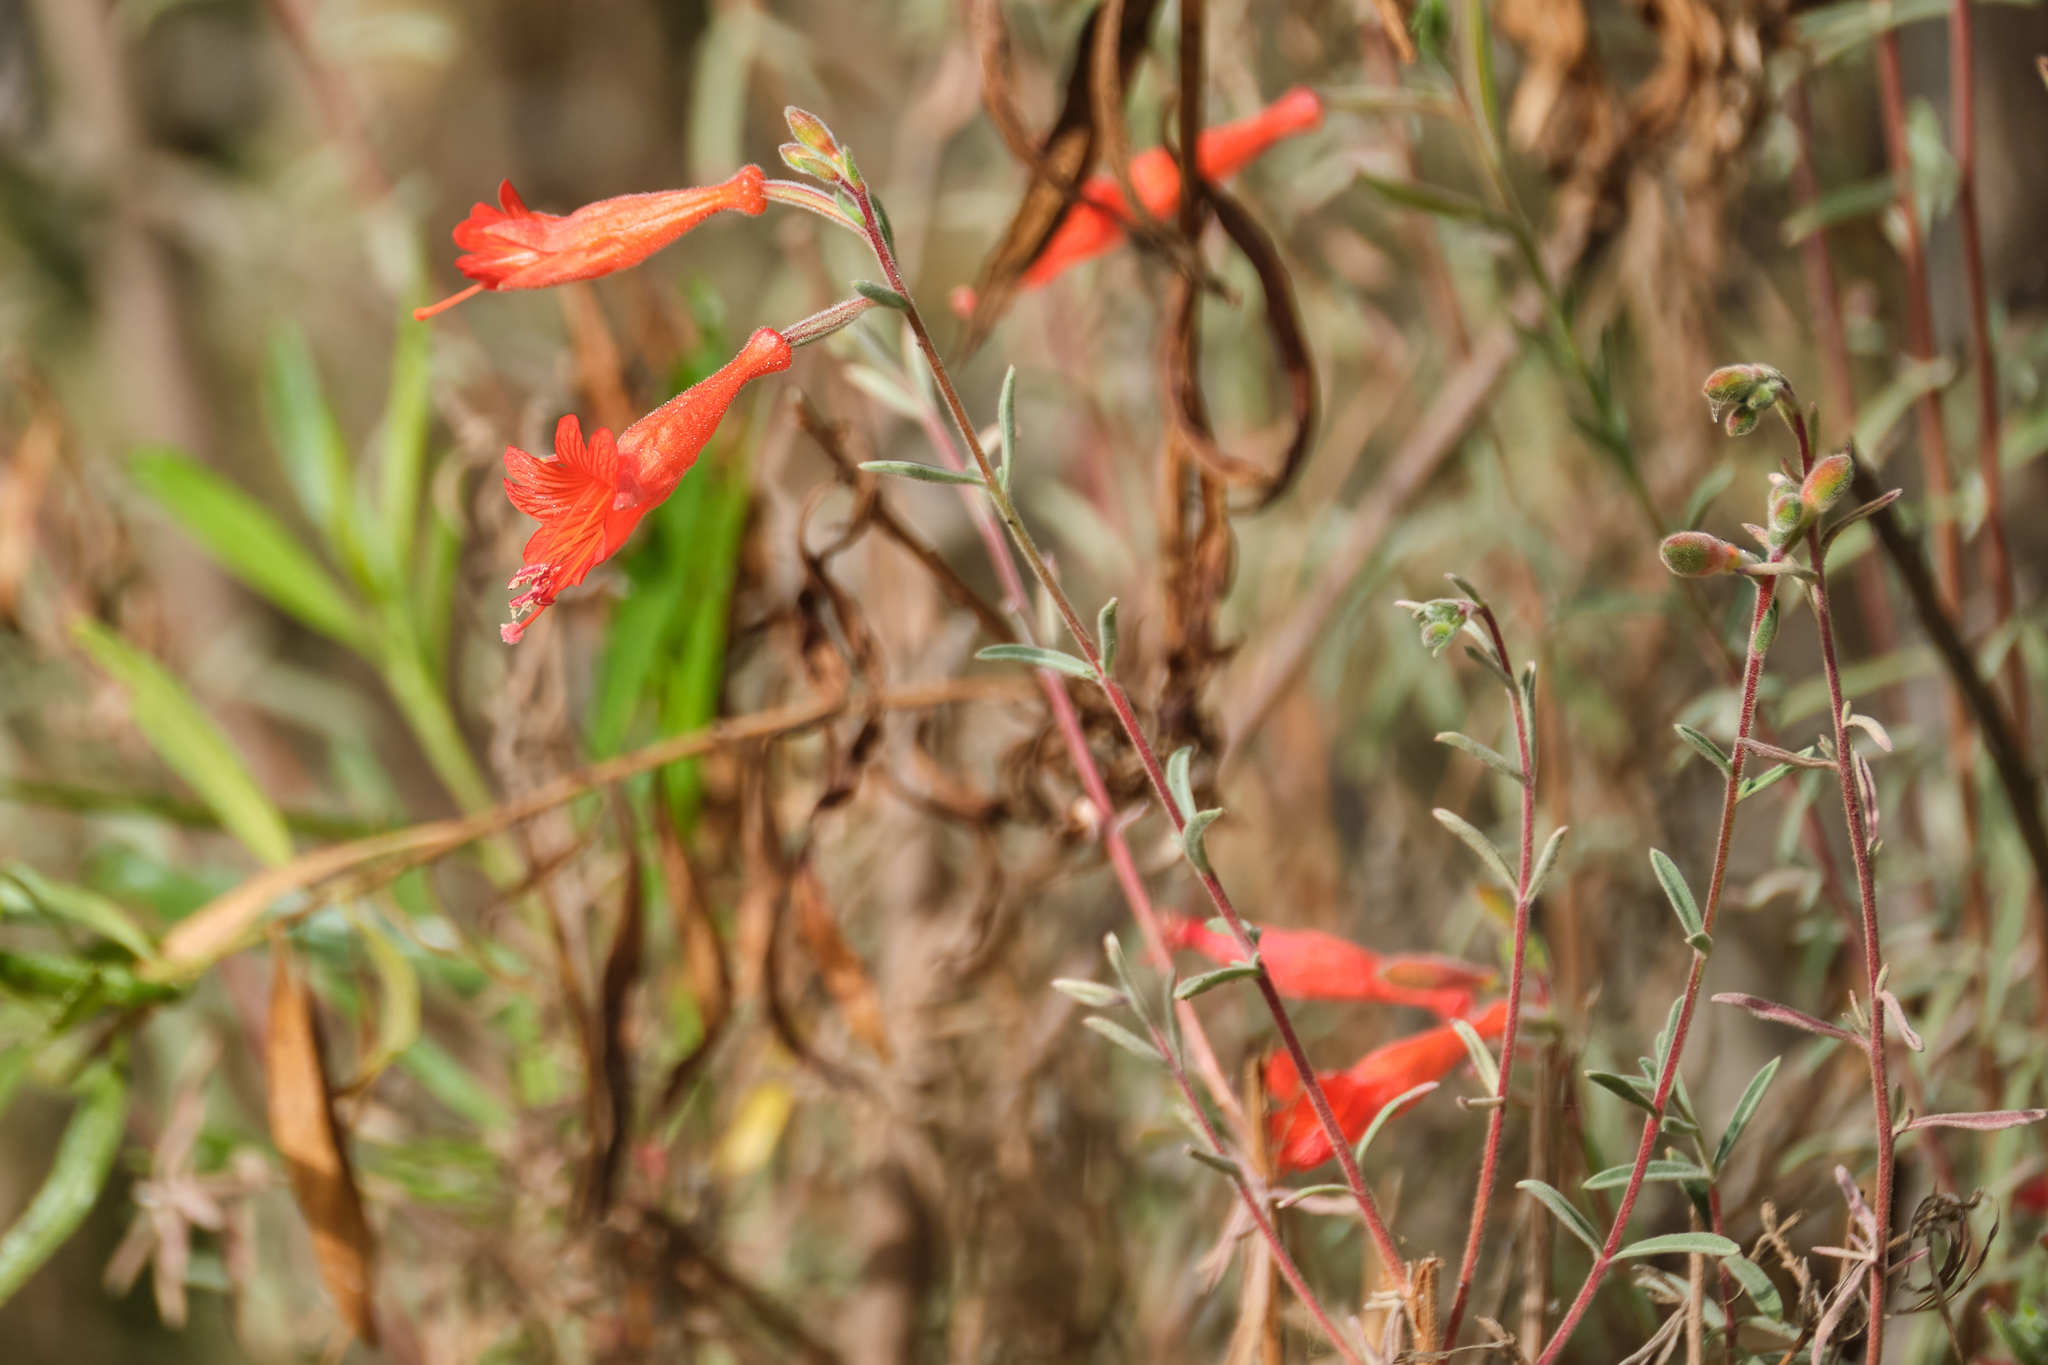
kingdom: Plantae
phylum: Tracheophyta
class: Magnoliopsida
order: Myrtales
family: Onagraceae
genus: Epilobium
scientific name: Epilobium canum
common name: California-fuchsia
